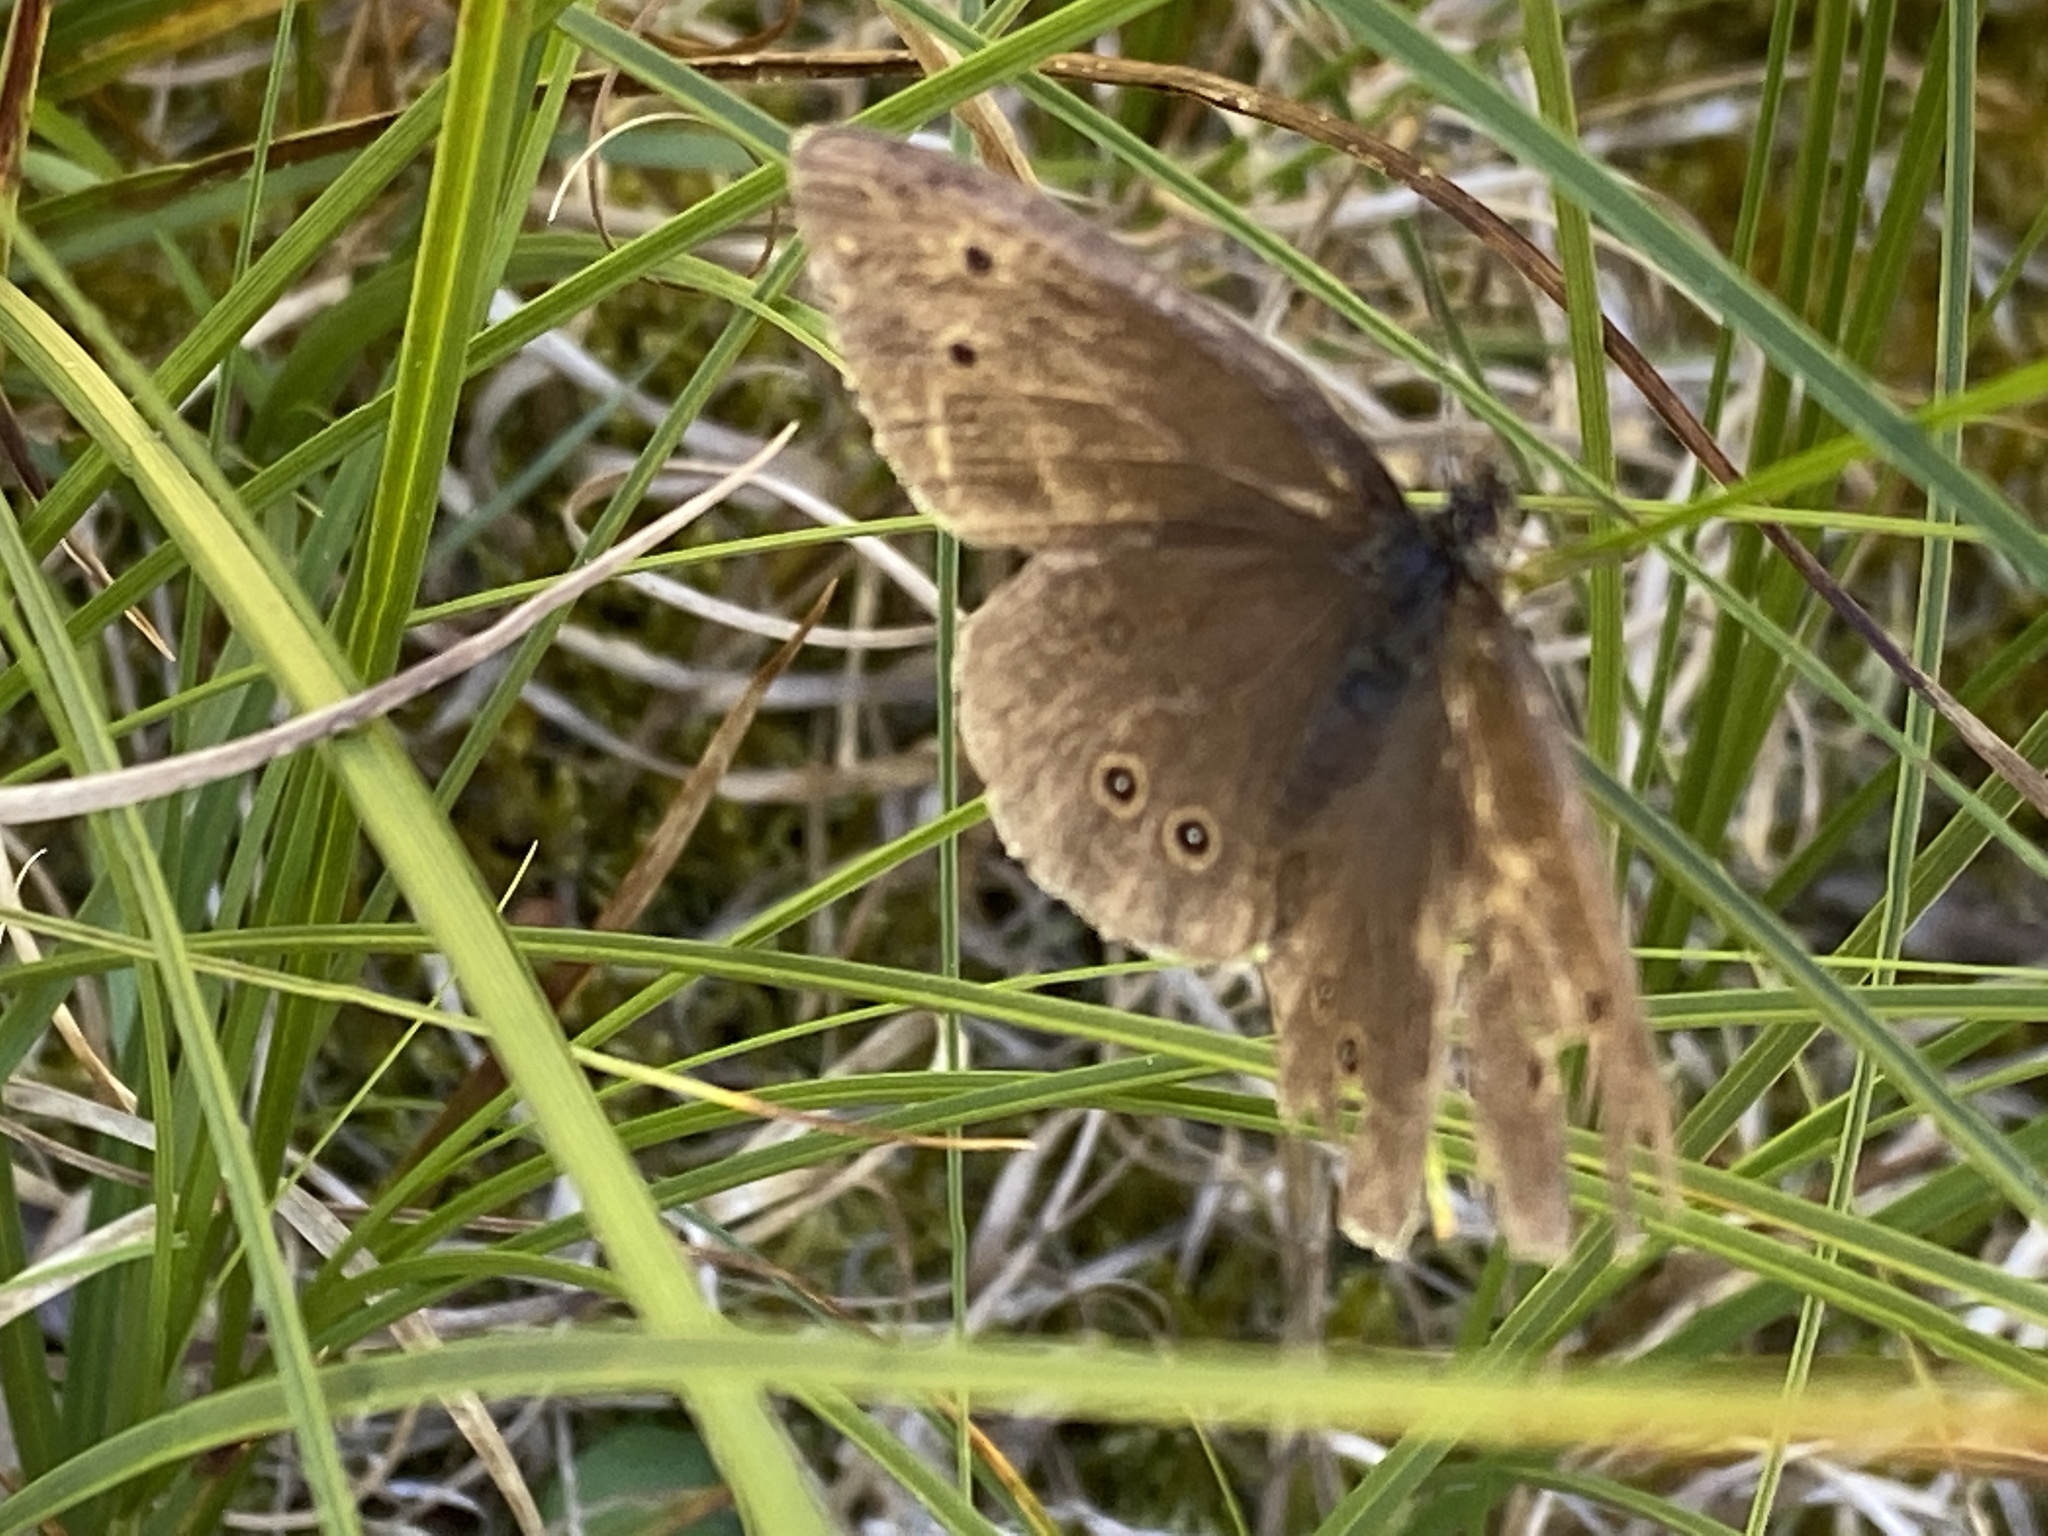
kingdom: Animalia
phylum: Arthropoda
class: Insecta
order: Lepidoptera
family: Nymphalidae
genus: Aphantopus
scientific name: Aphantopus hyperantus
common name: Ringlet
